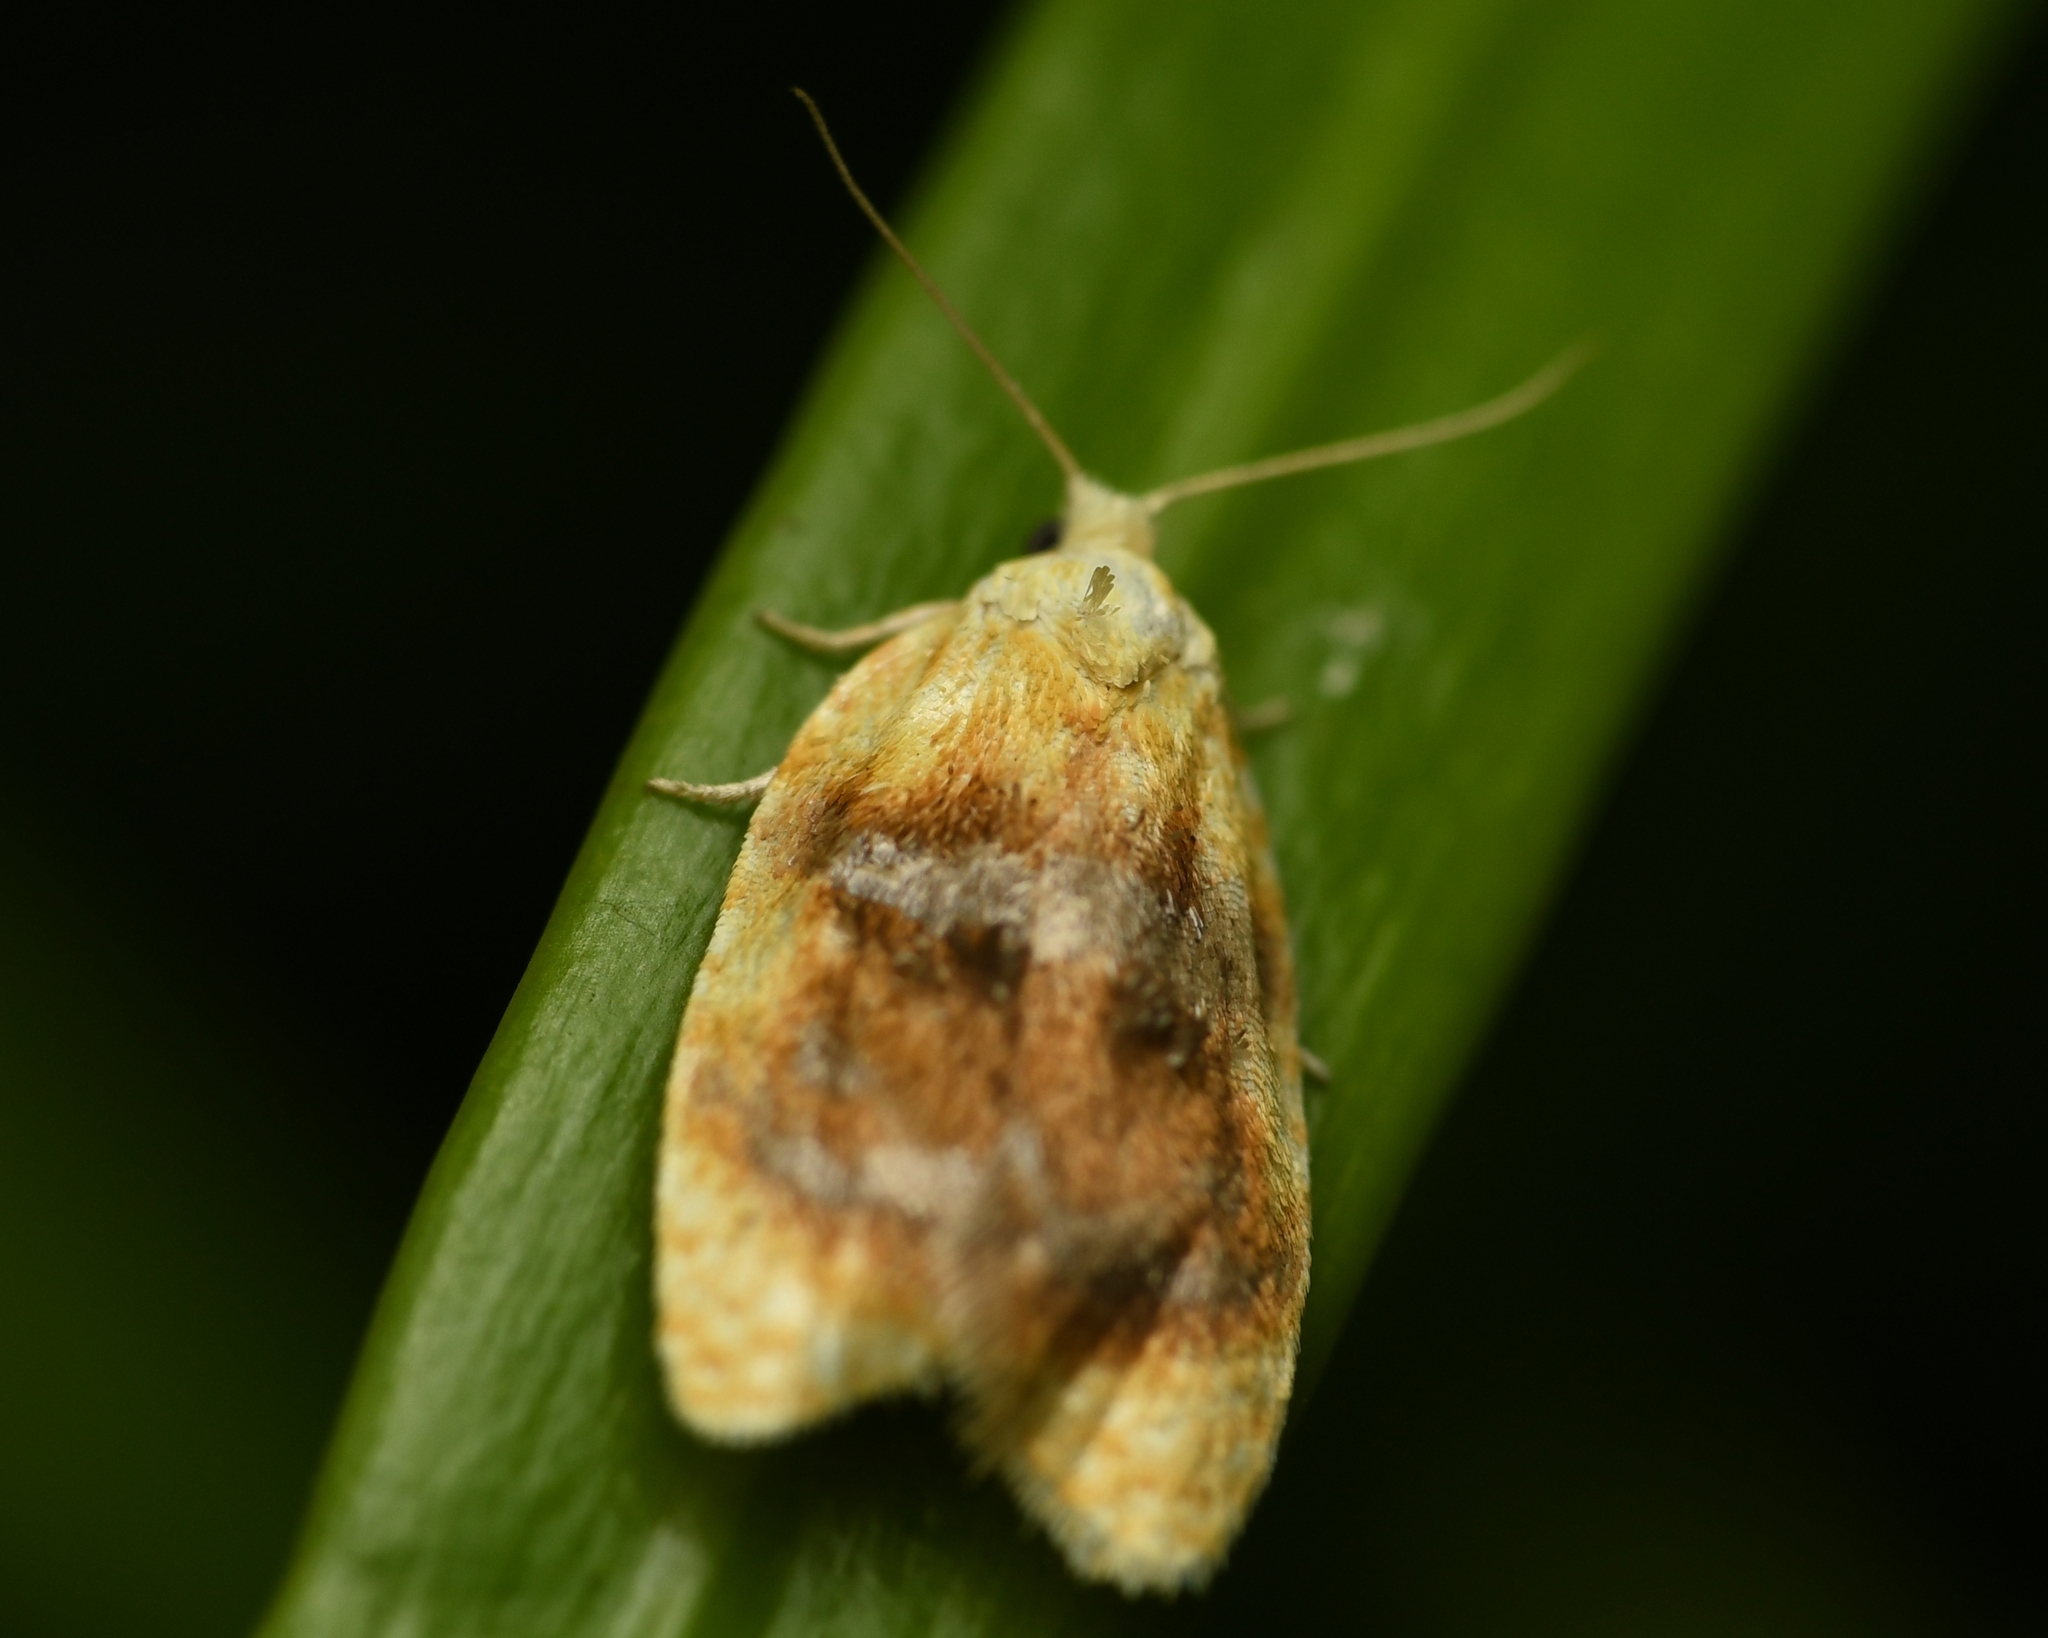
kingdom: Animalia
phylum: Arthropoda
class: Insecta
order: Lepidoptera
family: Tortricidae
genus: Acleris
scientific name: Acleris semipurpurana
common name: Oak leaftier moth
